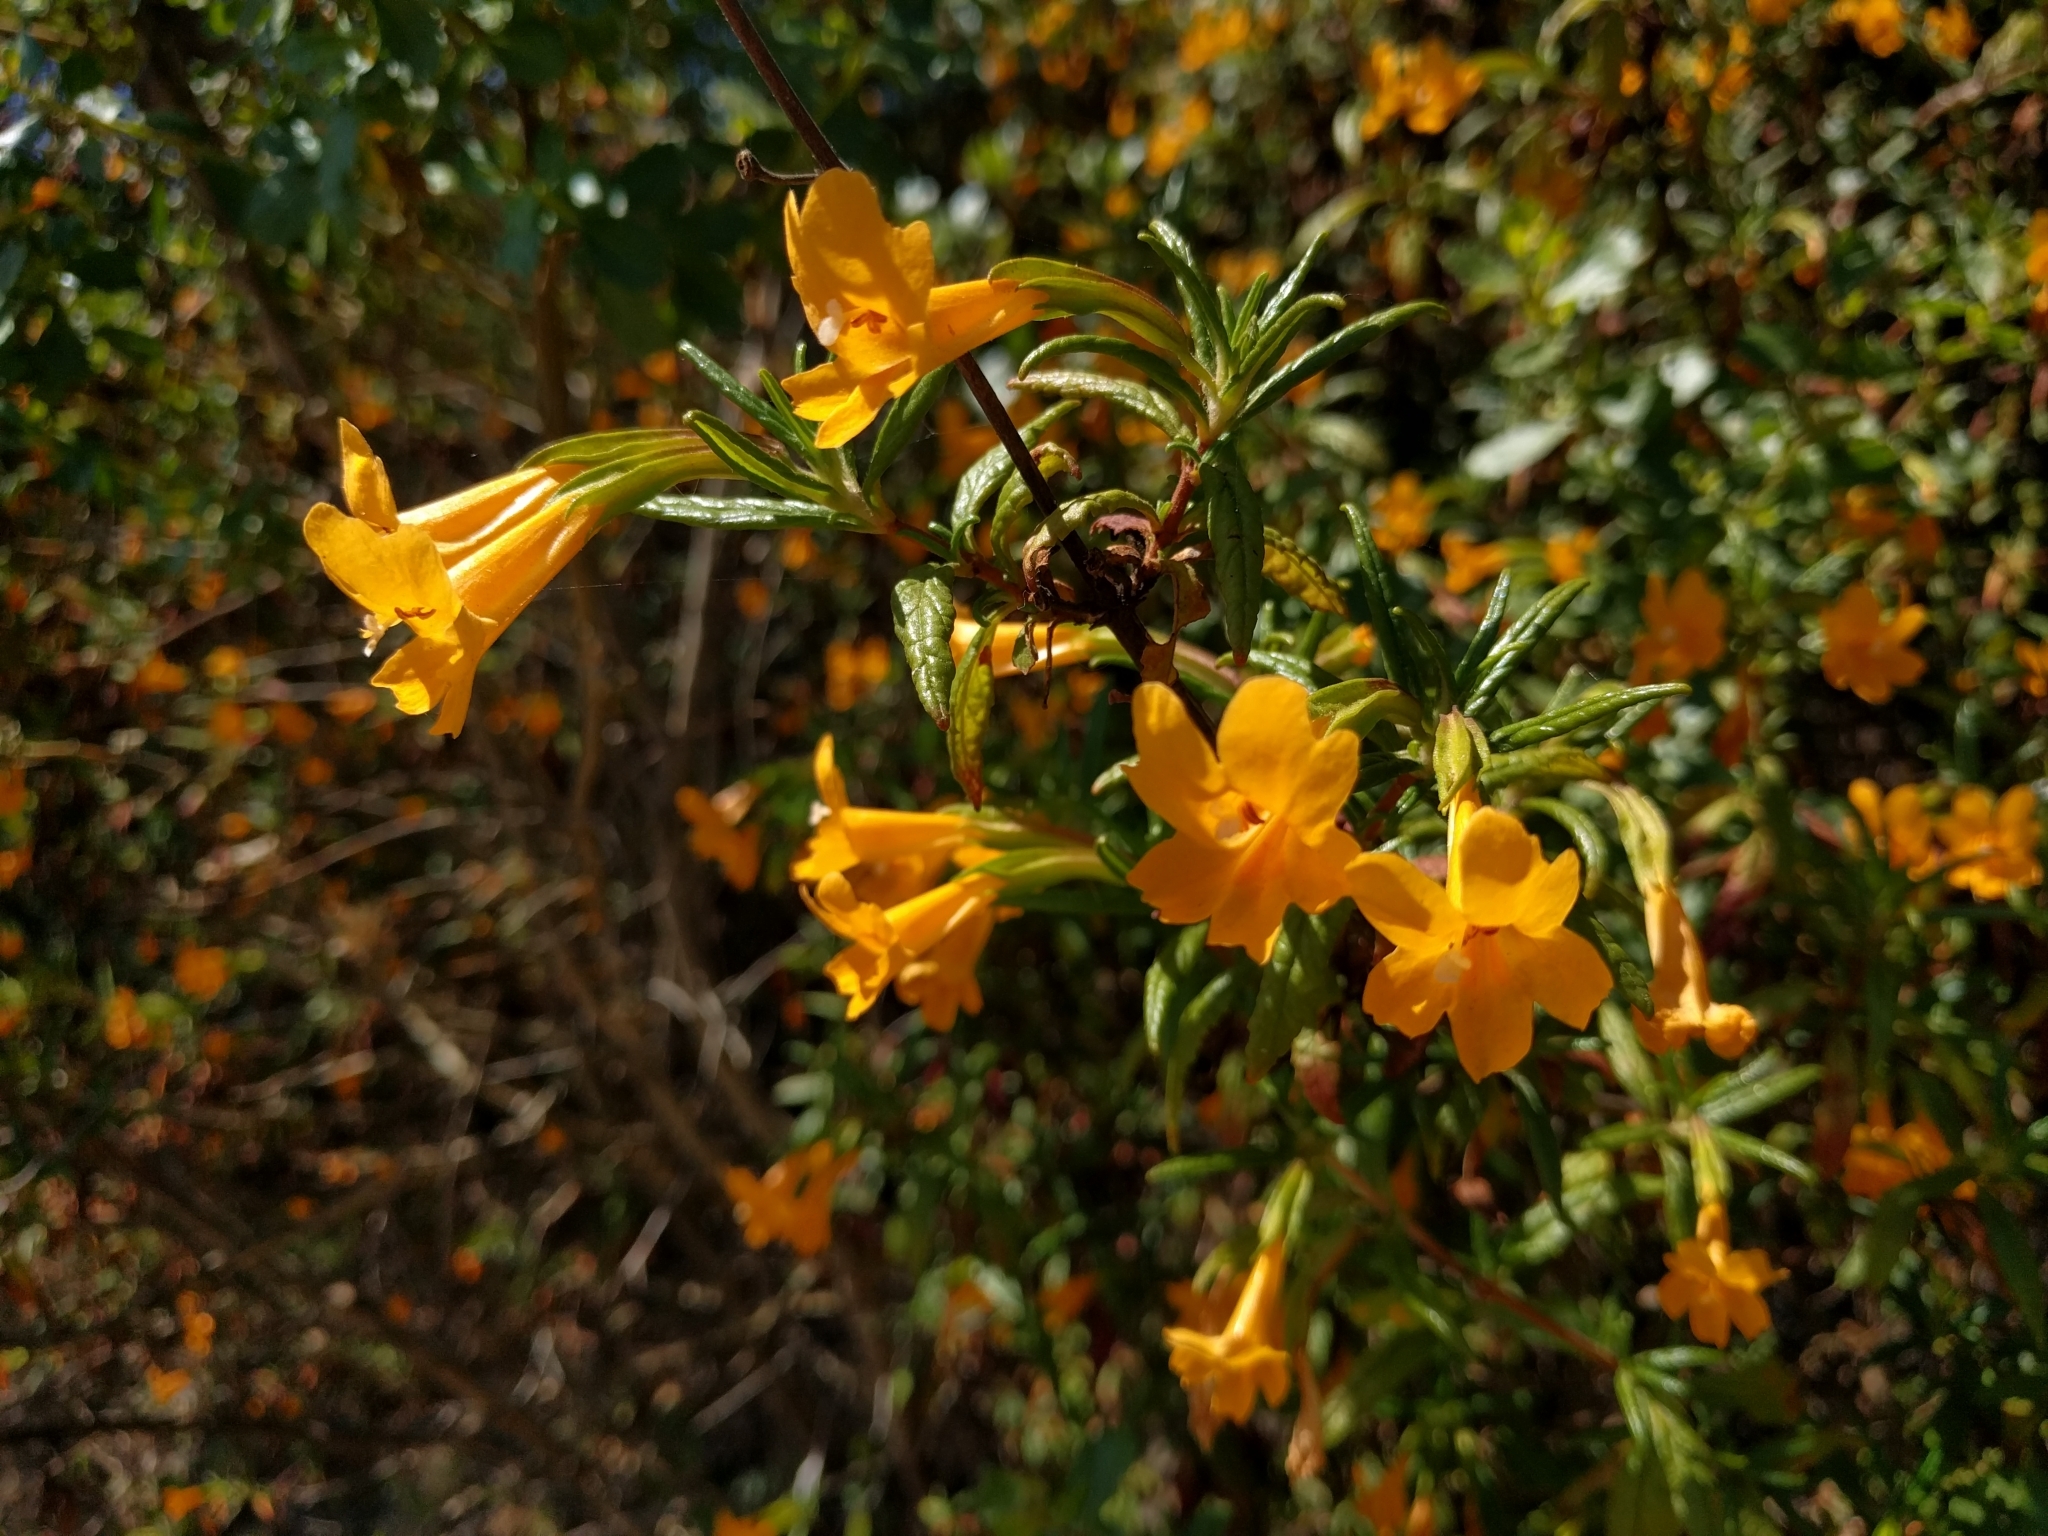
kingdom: Plantae
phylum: Tracheophyta
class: Magnoliopsida
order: Lamiales
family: Phrymaceae
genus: Diplacus
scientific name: Diplacus aurantiacus
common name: Bush monkey-flower
